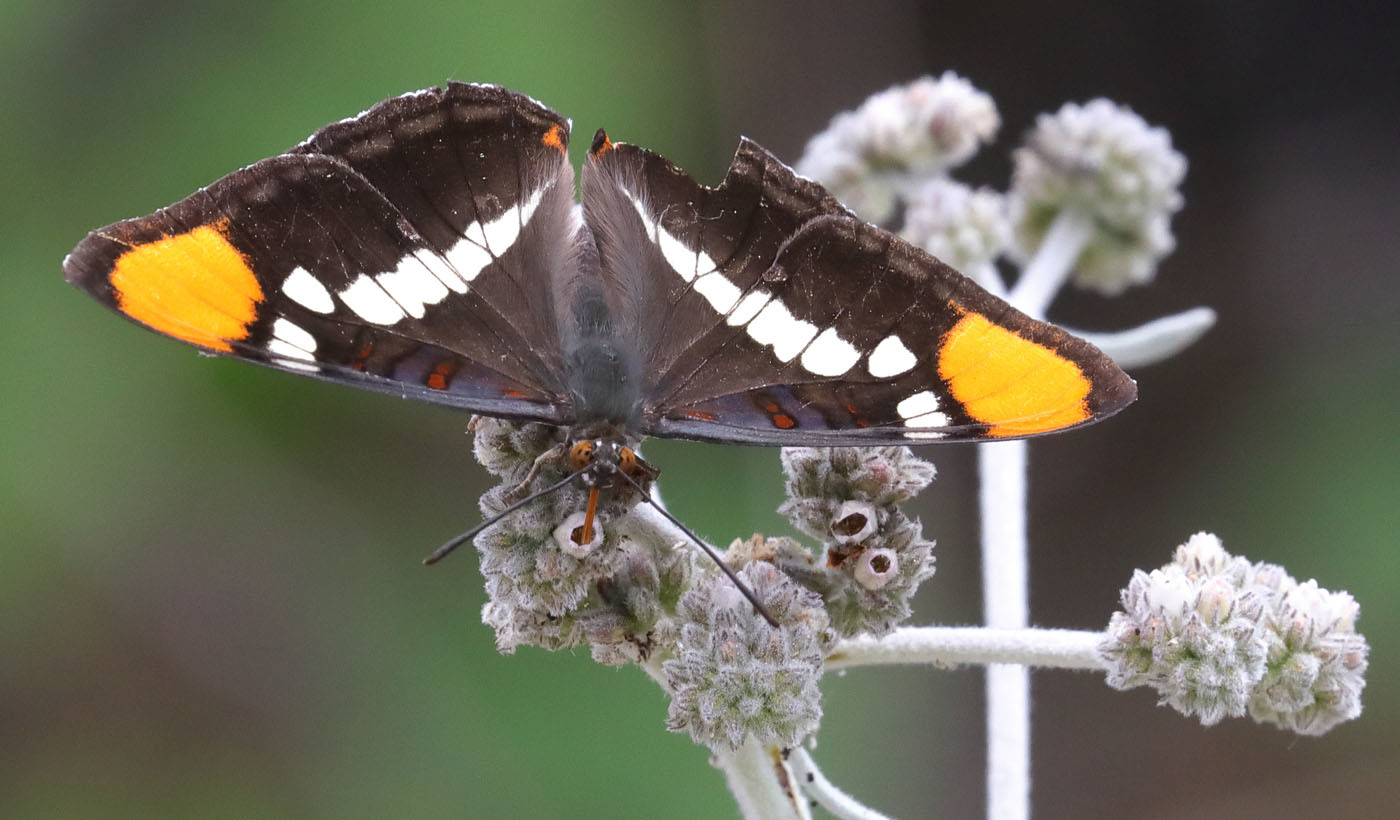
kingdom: Animalia
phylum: Arthropoda
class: Insecta
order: Lepidoptera
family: Nymphalidae
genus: Limenitis
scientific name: Limenitis bredowii
